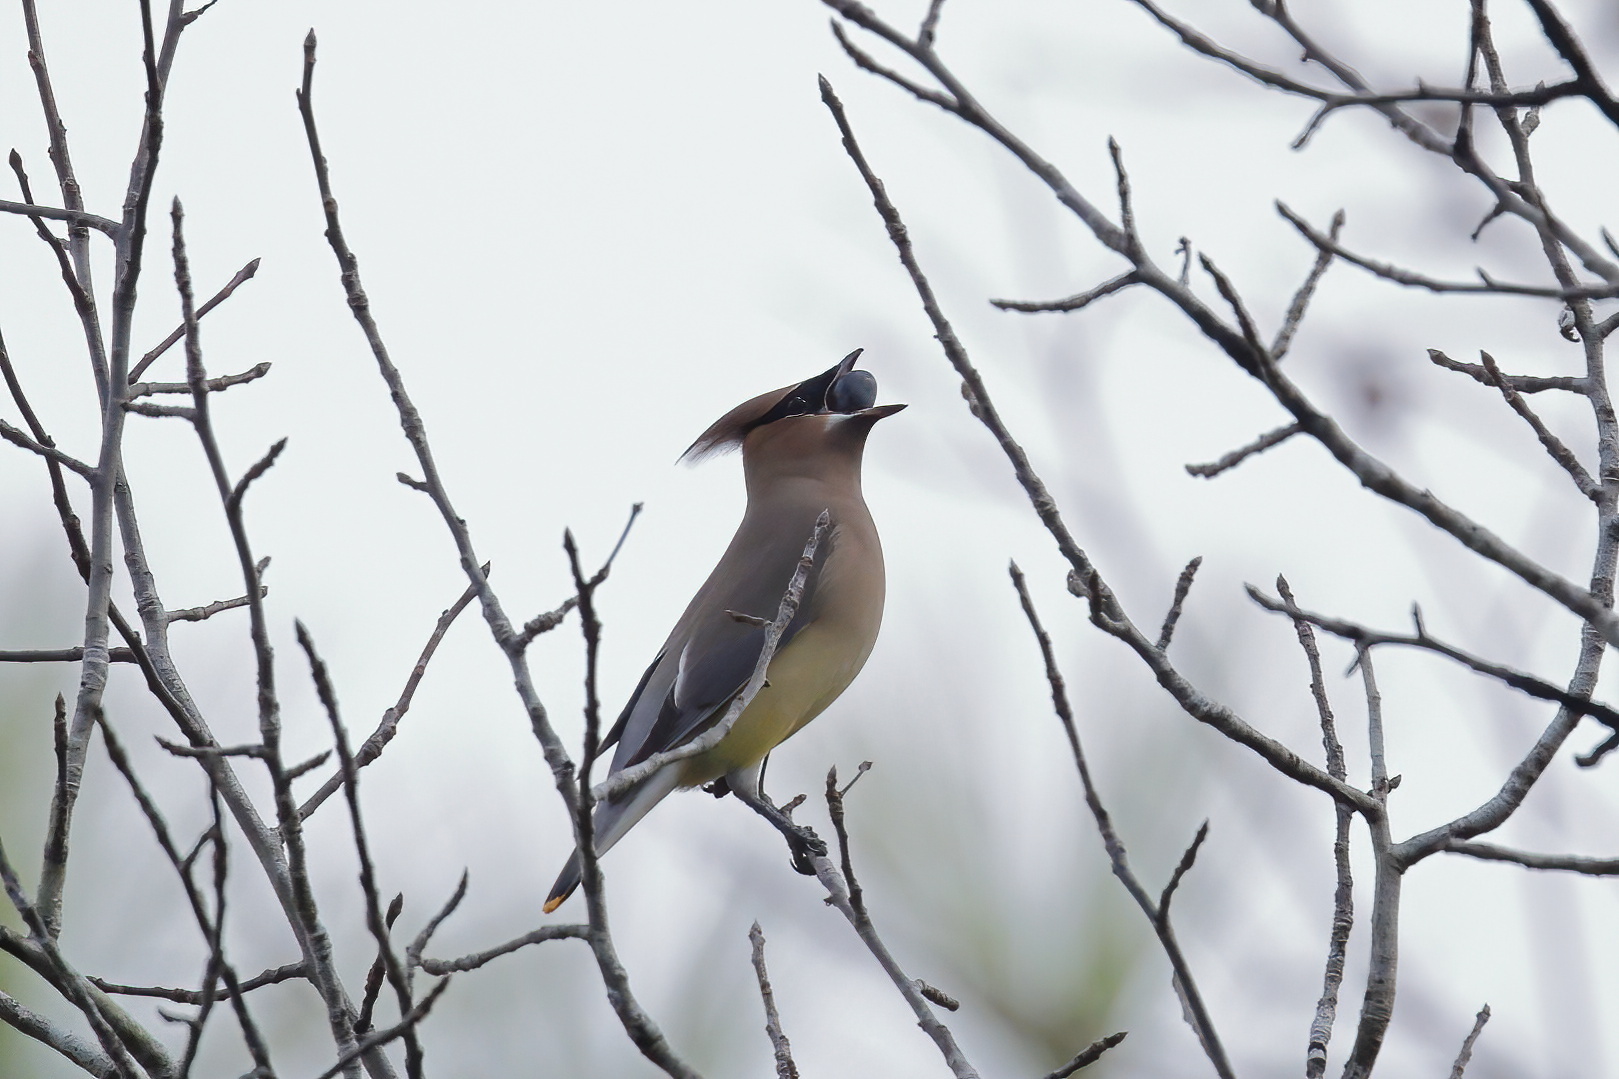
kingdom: Animalia
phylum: Chordata
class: Aves
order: Passeriformes
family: Bombycillidae
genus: Bombycilla
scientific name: Bombycilla cedrorum
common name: Cedar waxwing
